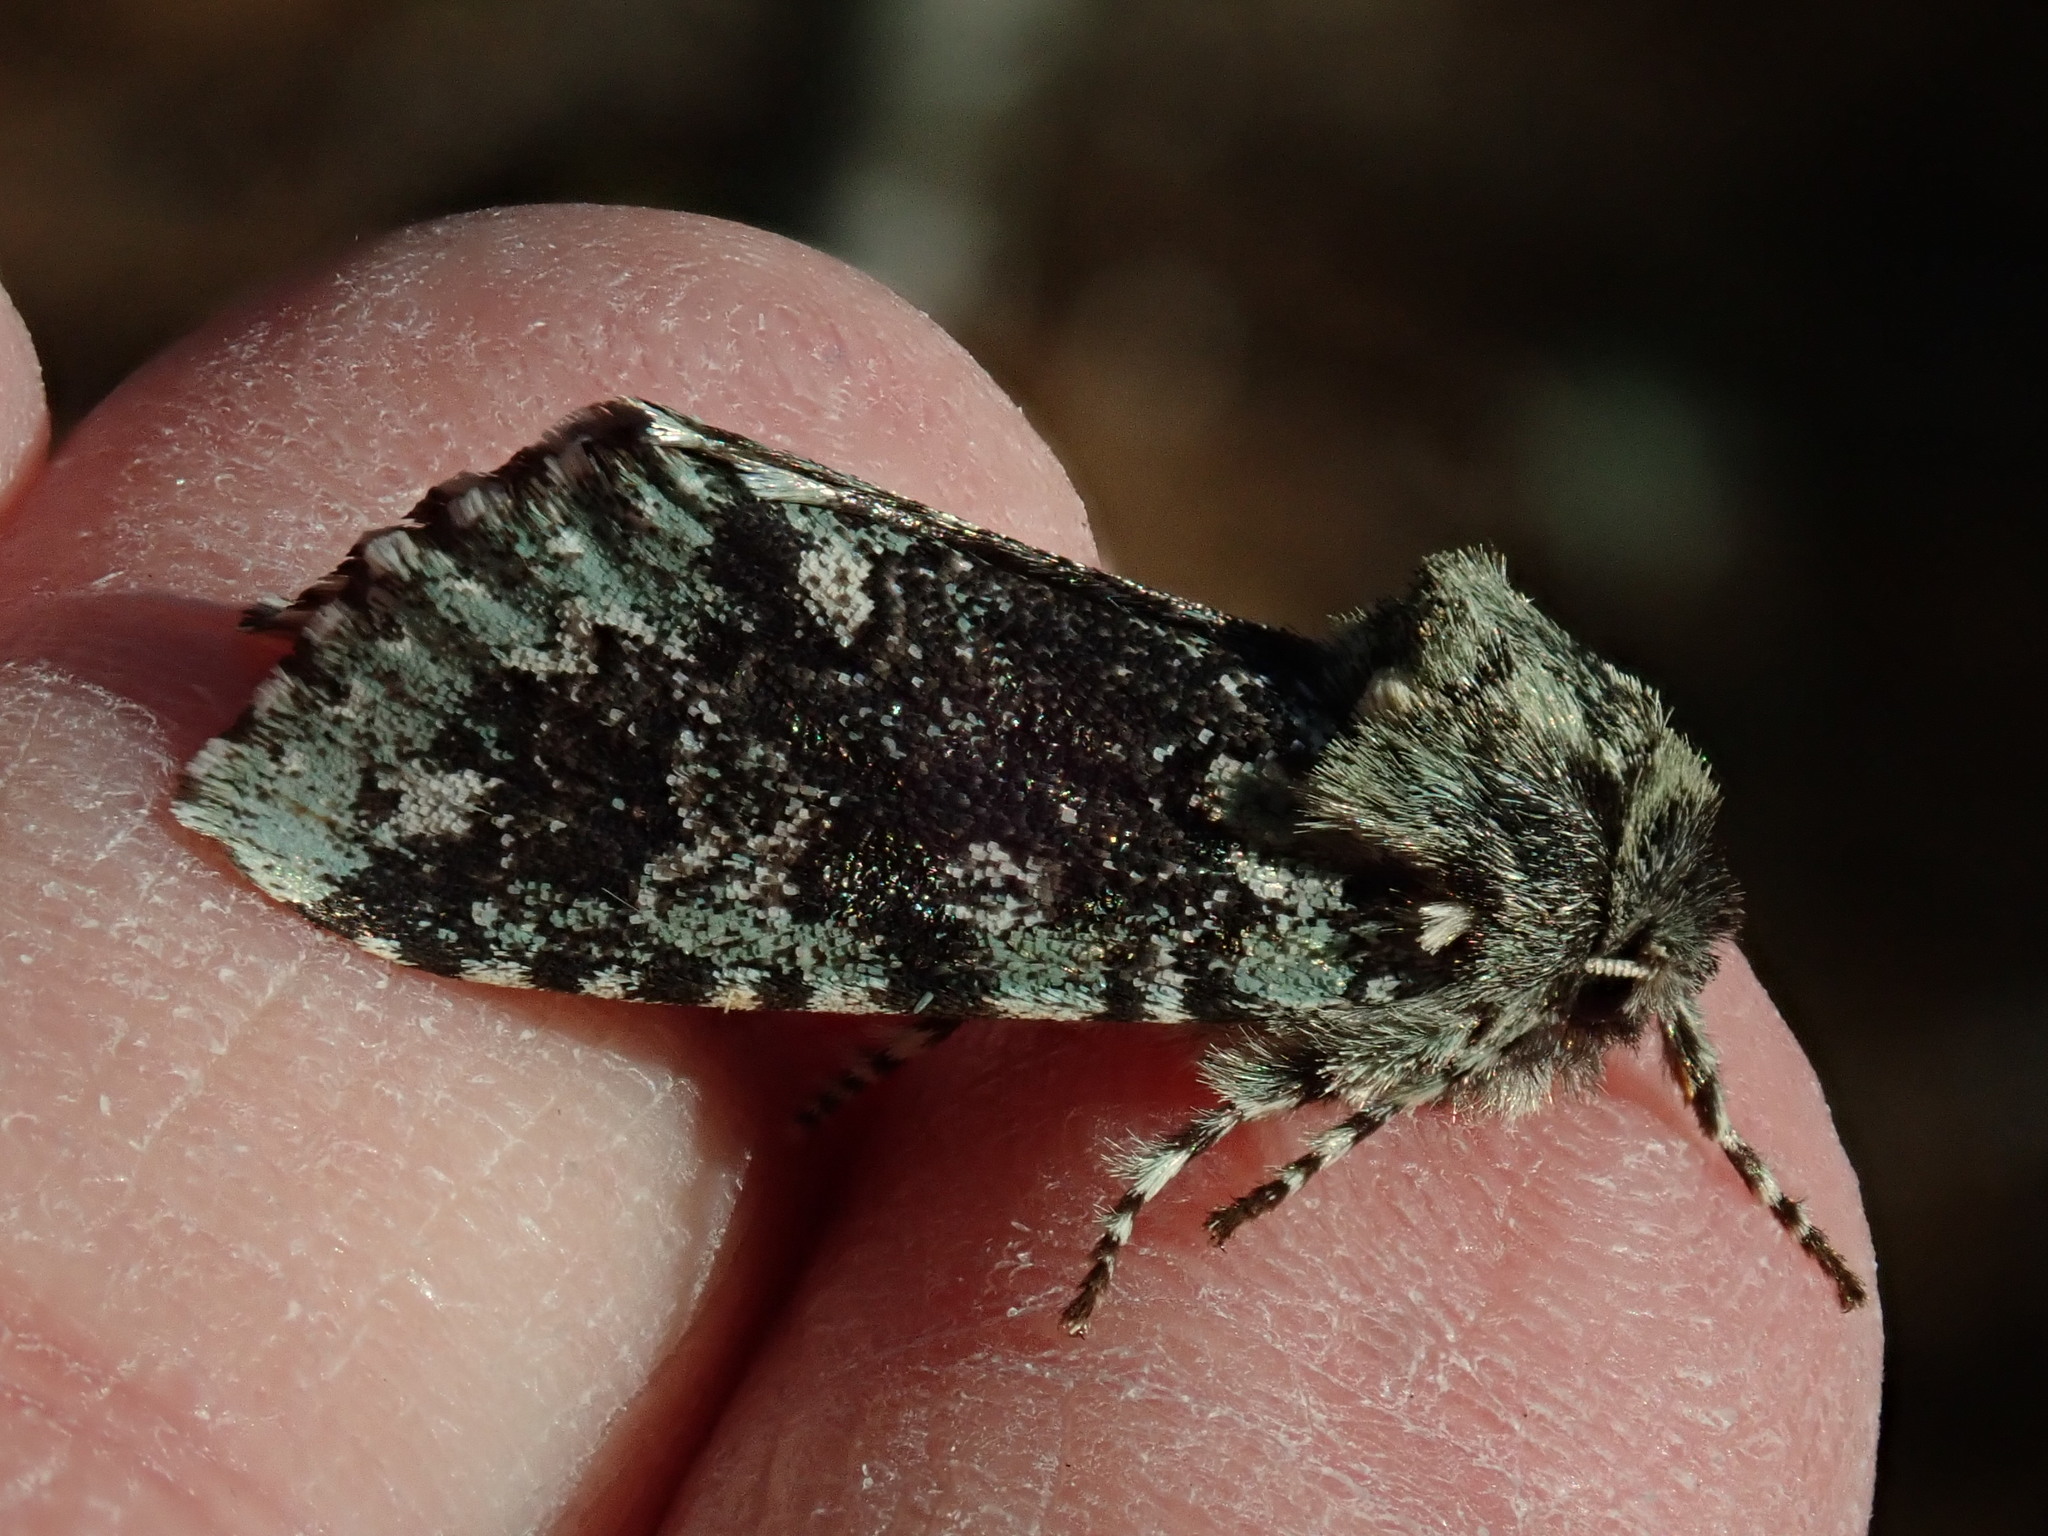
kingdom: Animalia
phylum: Arthropoda
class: Insecta
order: Lepidoptera
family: Noctuidae
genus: Feralia
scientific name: Feralia major
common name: Major sallow
